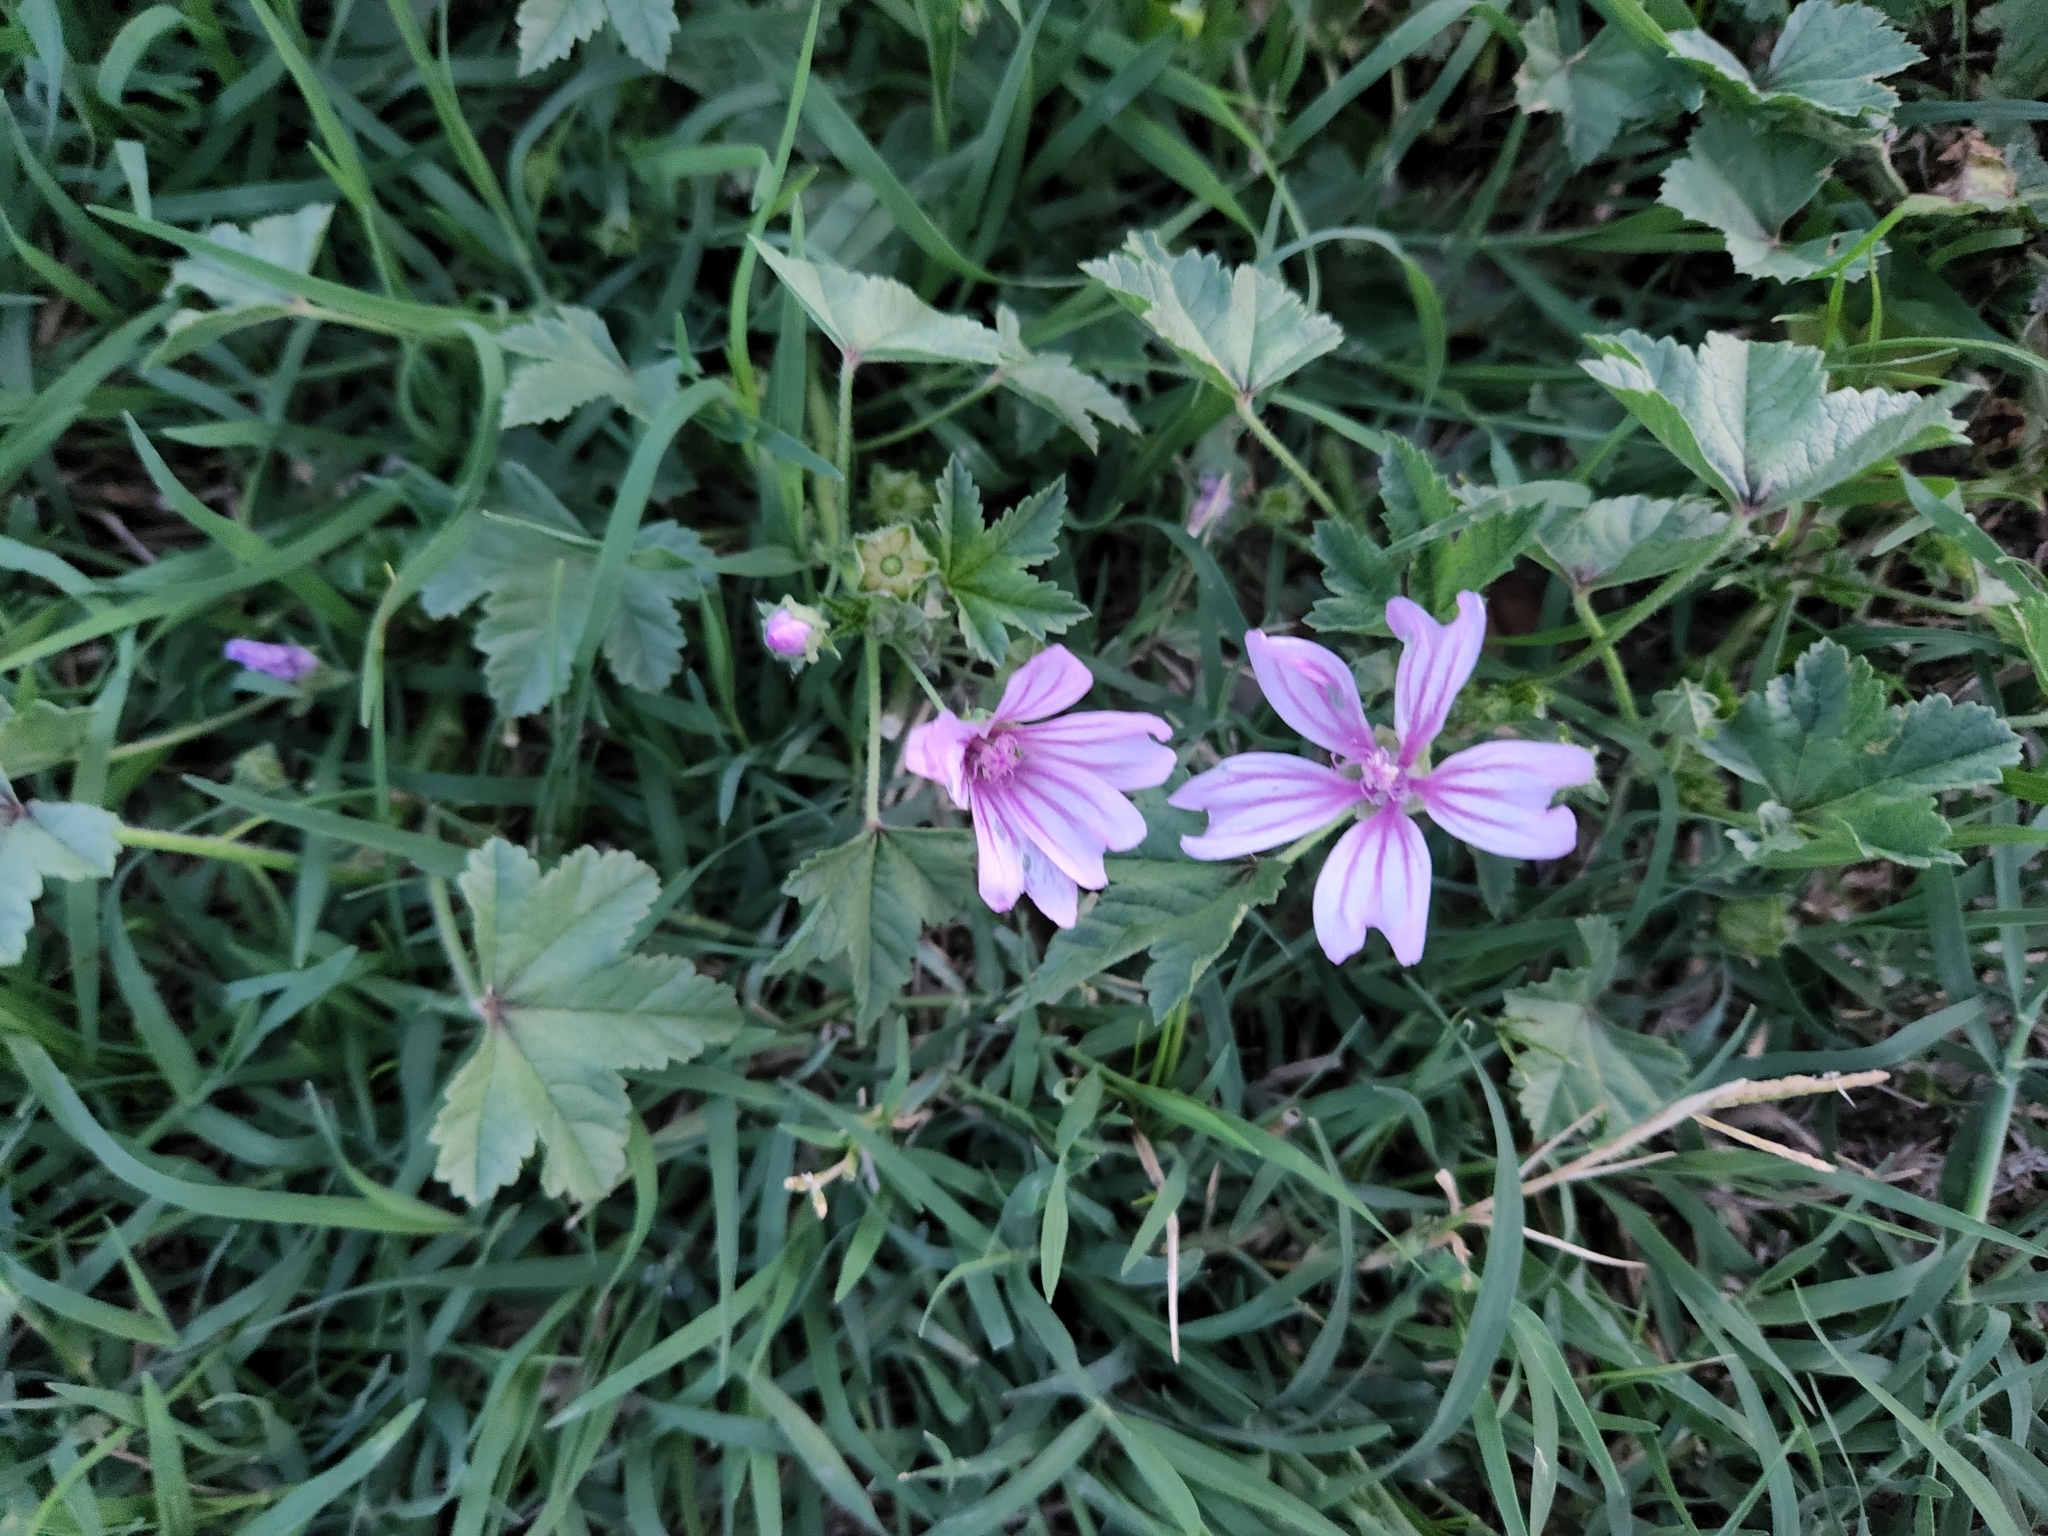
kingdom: Plantae
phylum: Tracheophyta
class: Magnoliopsida
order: Malvales
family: Malvaceae
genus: Malva
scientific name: Malva sylvestris
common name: Common mallow
